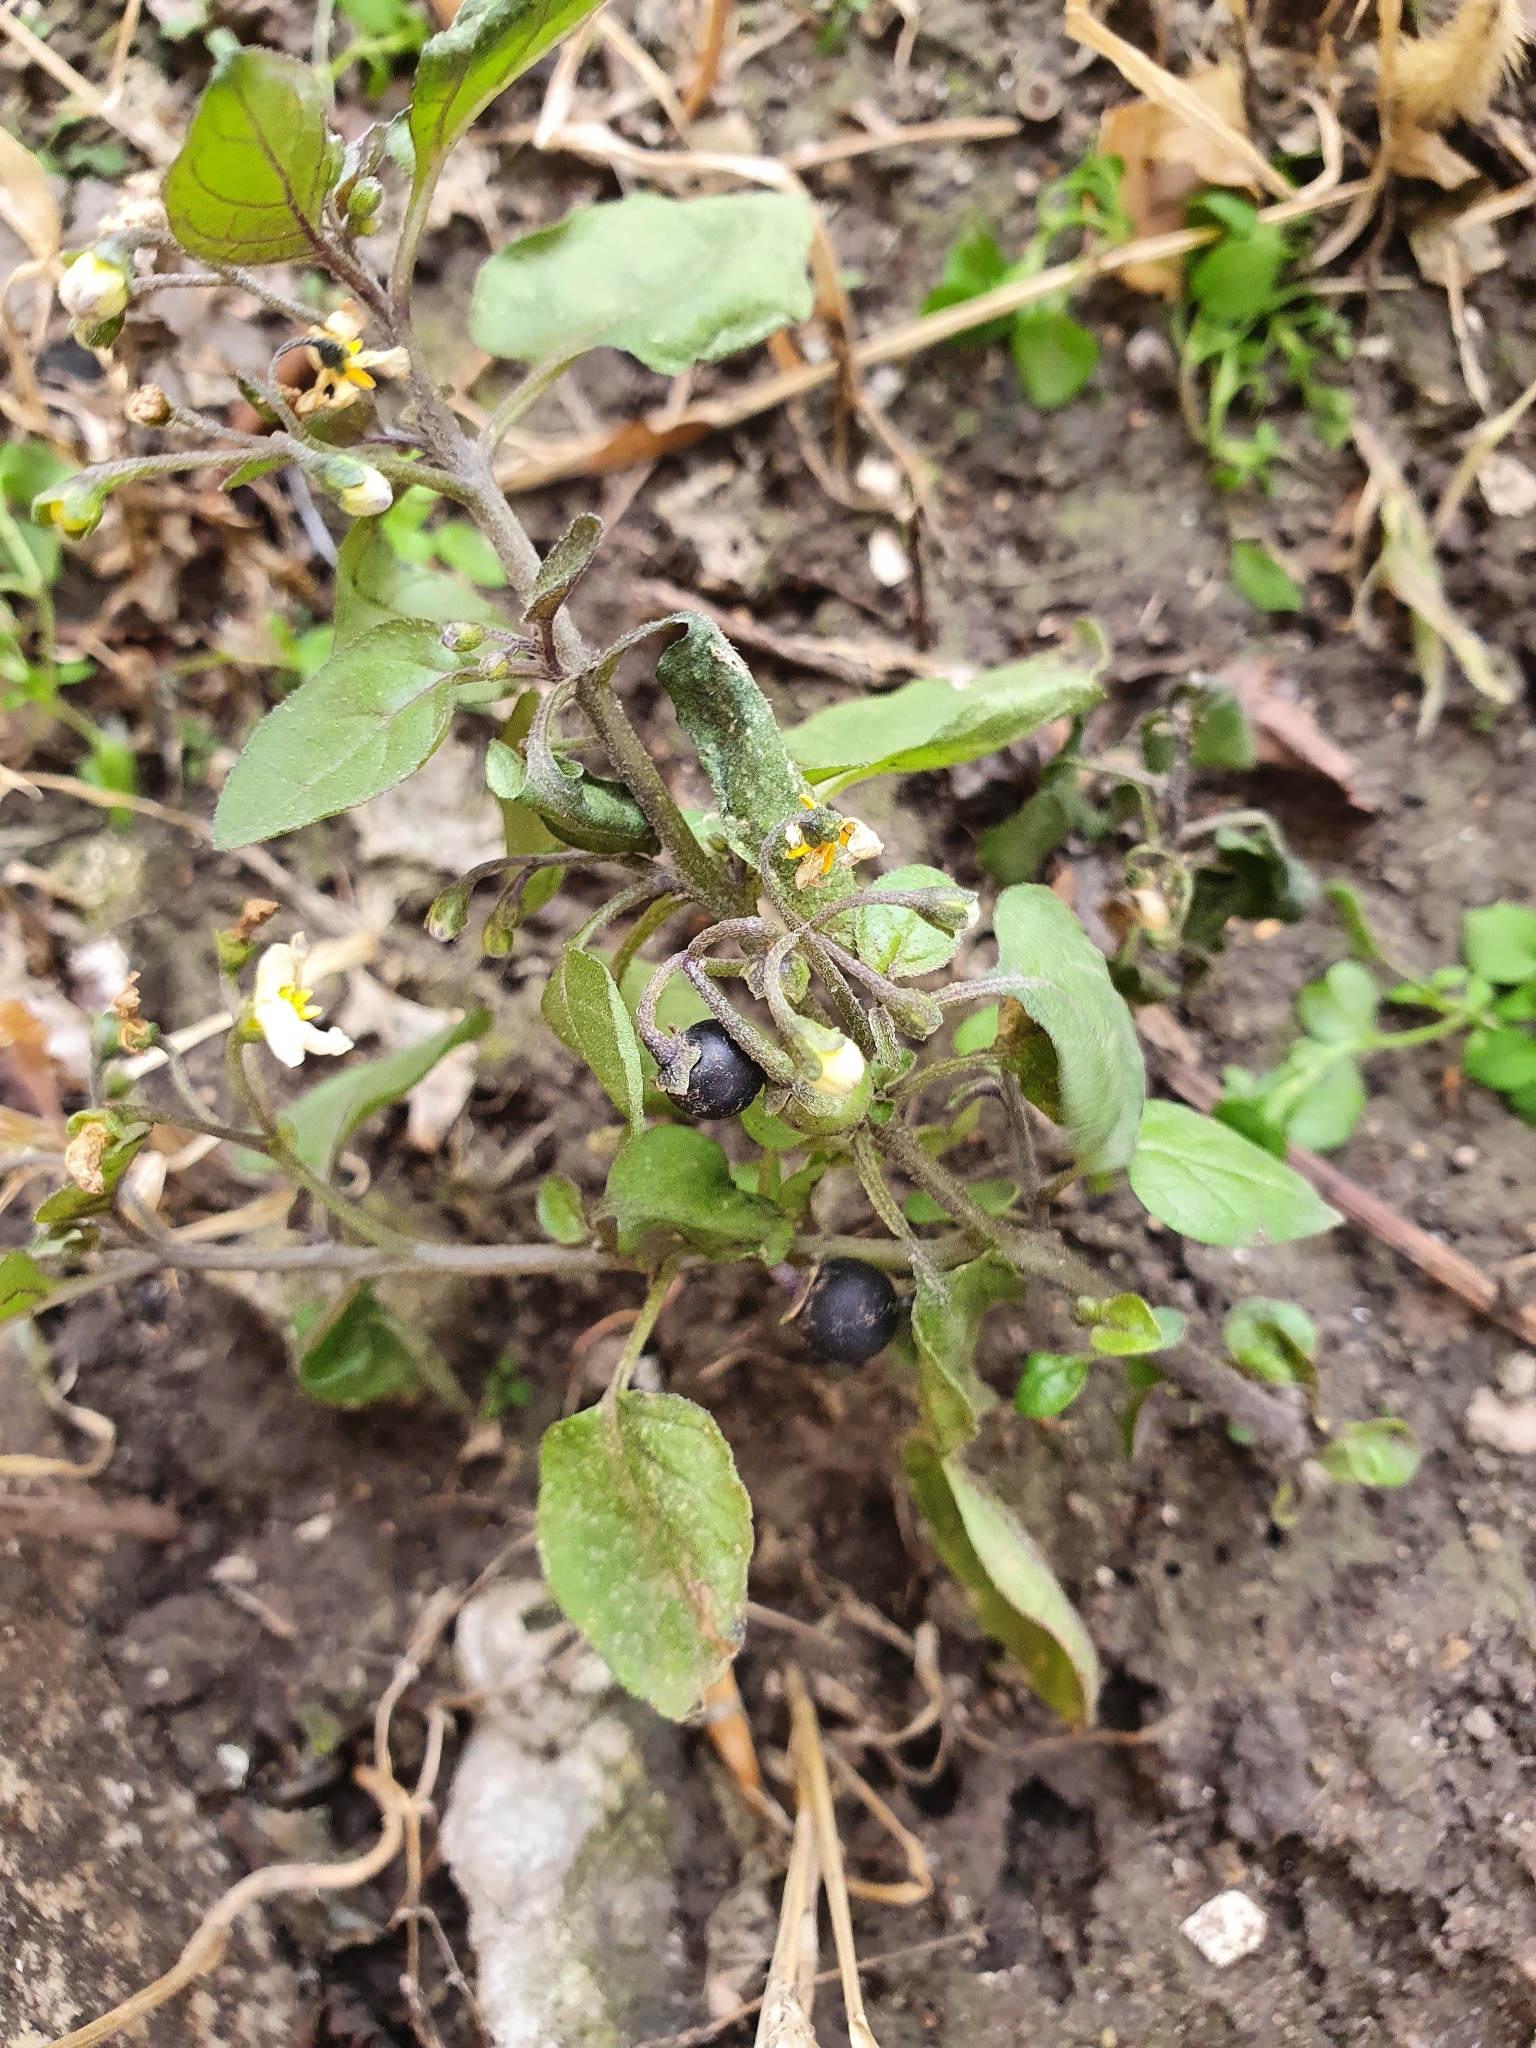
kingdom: Plantae
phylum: Tracheophyta
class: Magnoliopsida
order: Solanales
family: Solanaceae
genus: Solanum
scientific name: Solanum nigrum
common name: Black nightshade
